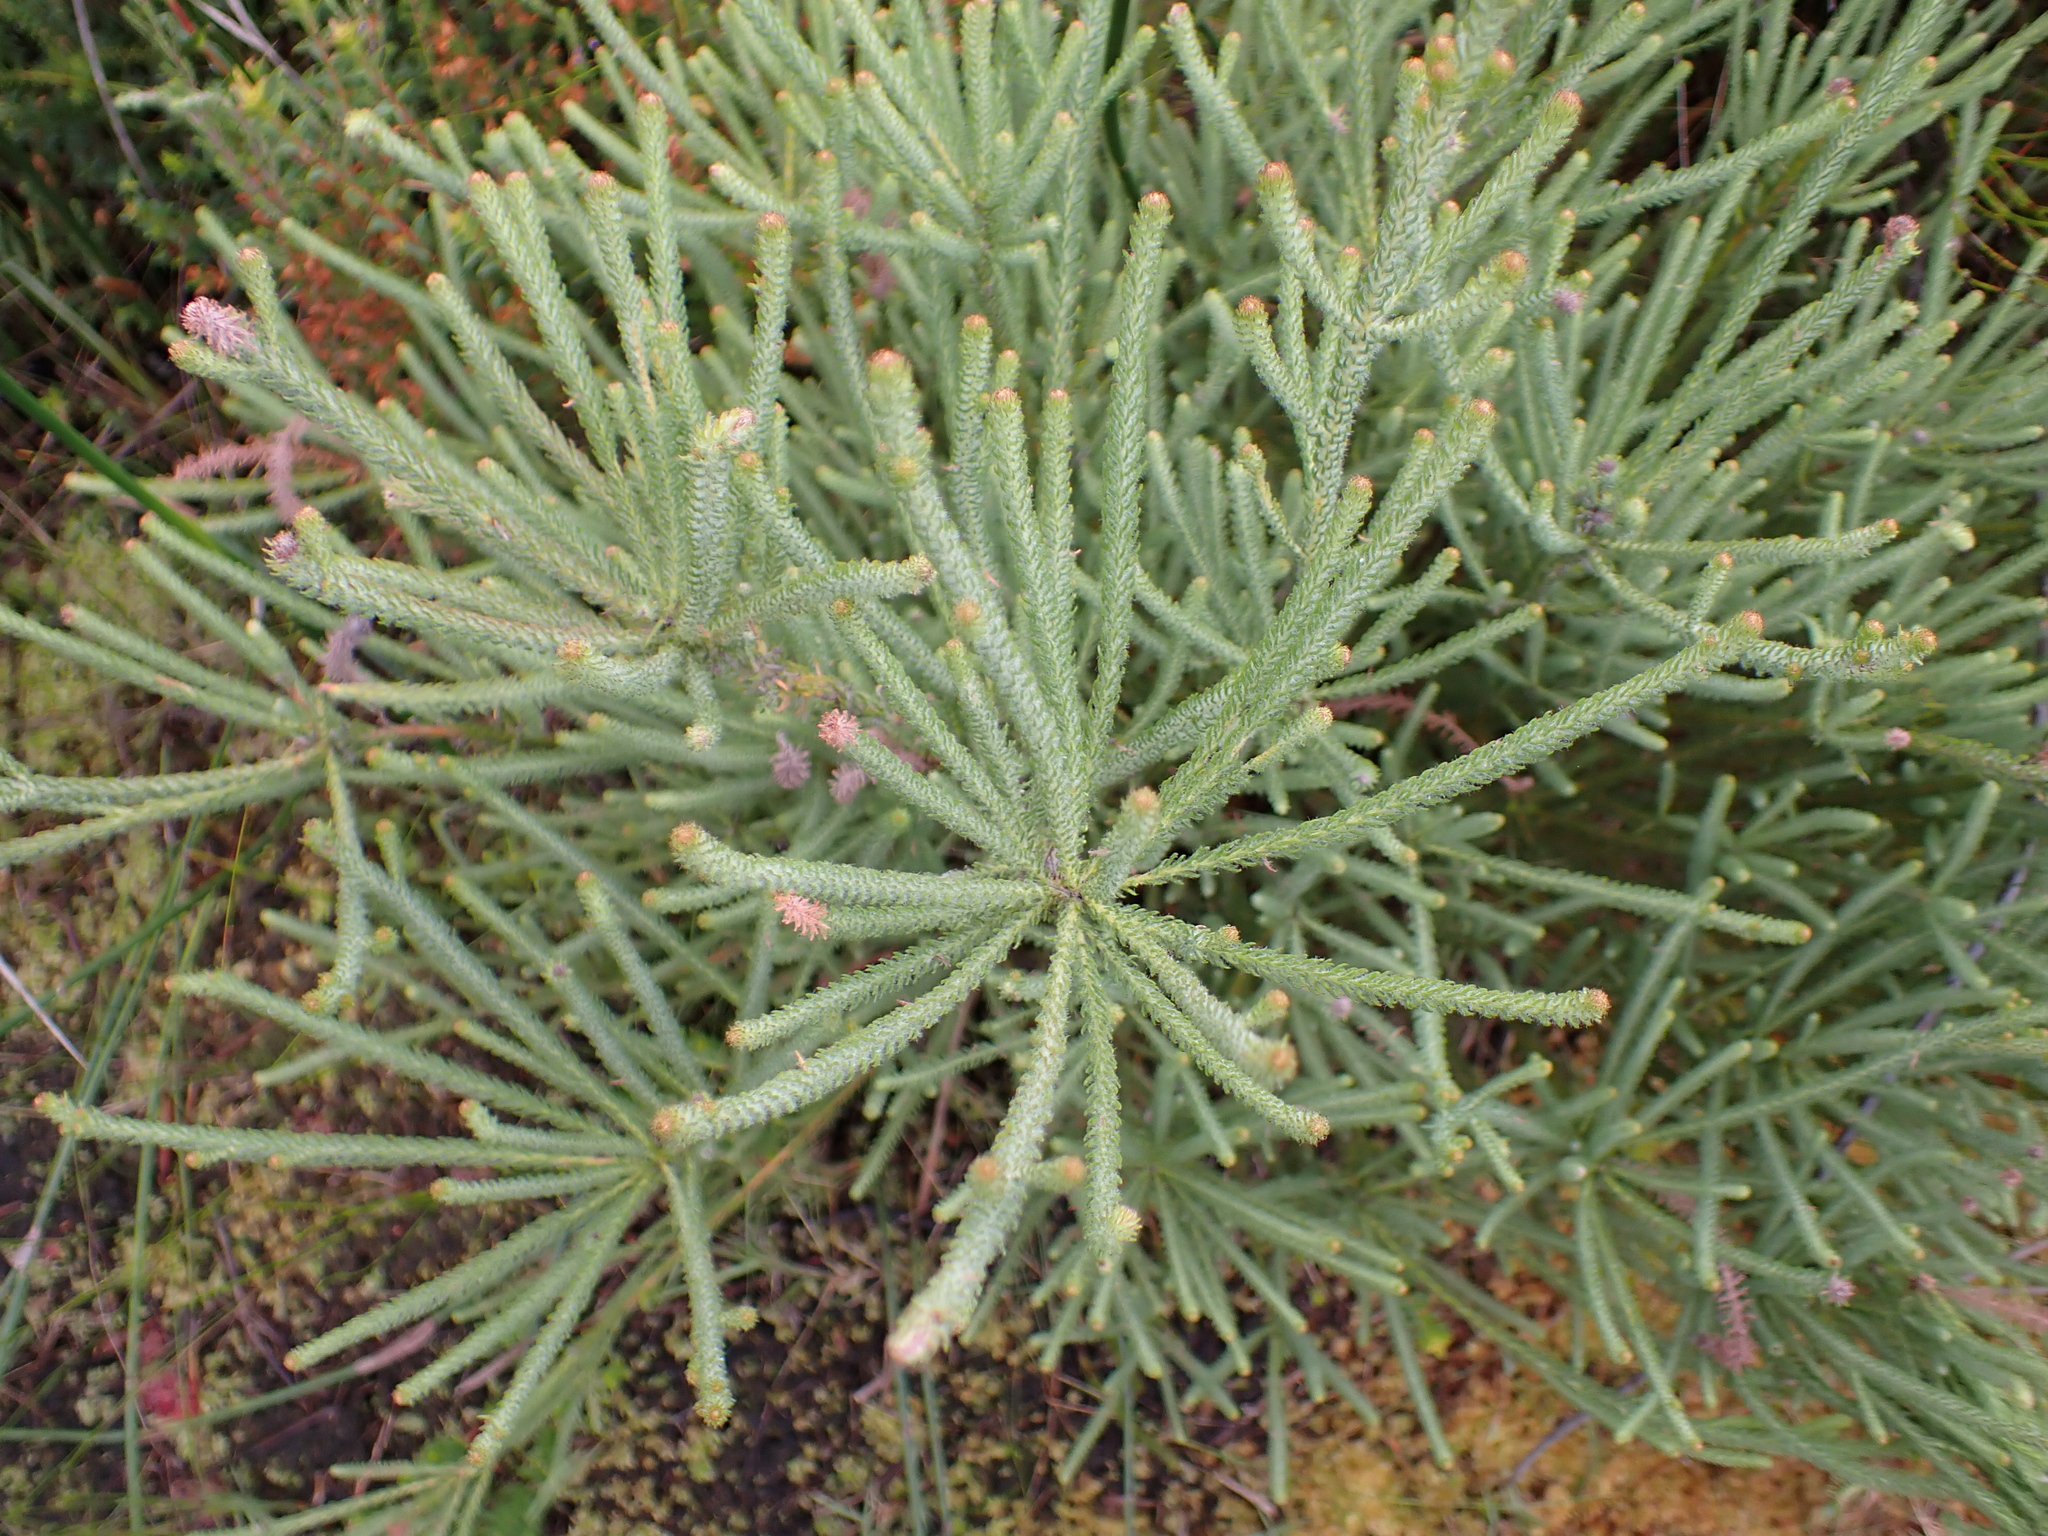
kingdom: Plantae
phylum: Tracheophyta
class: Magnoliopsida
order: Bruniales
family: Bruniaceae
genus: Berzelia
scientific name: Berzelia burchellii
